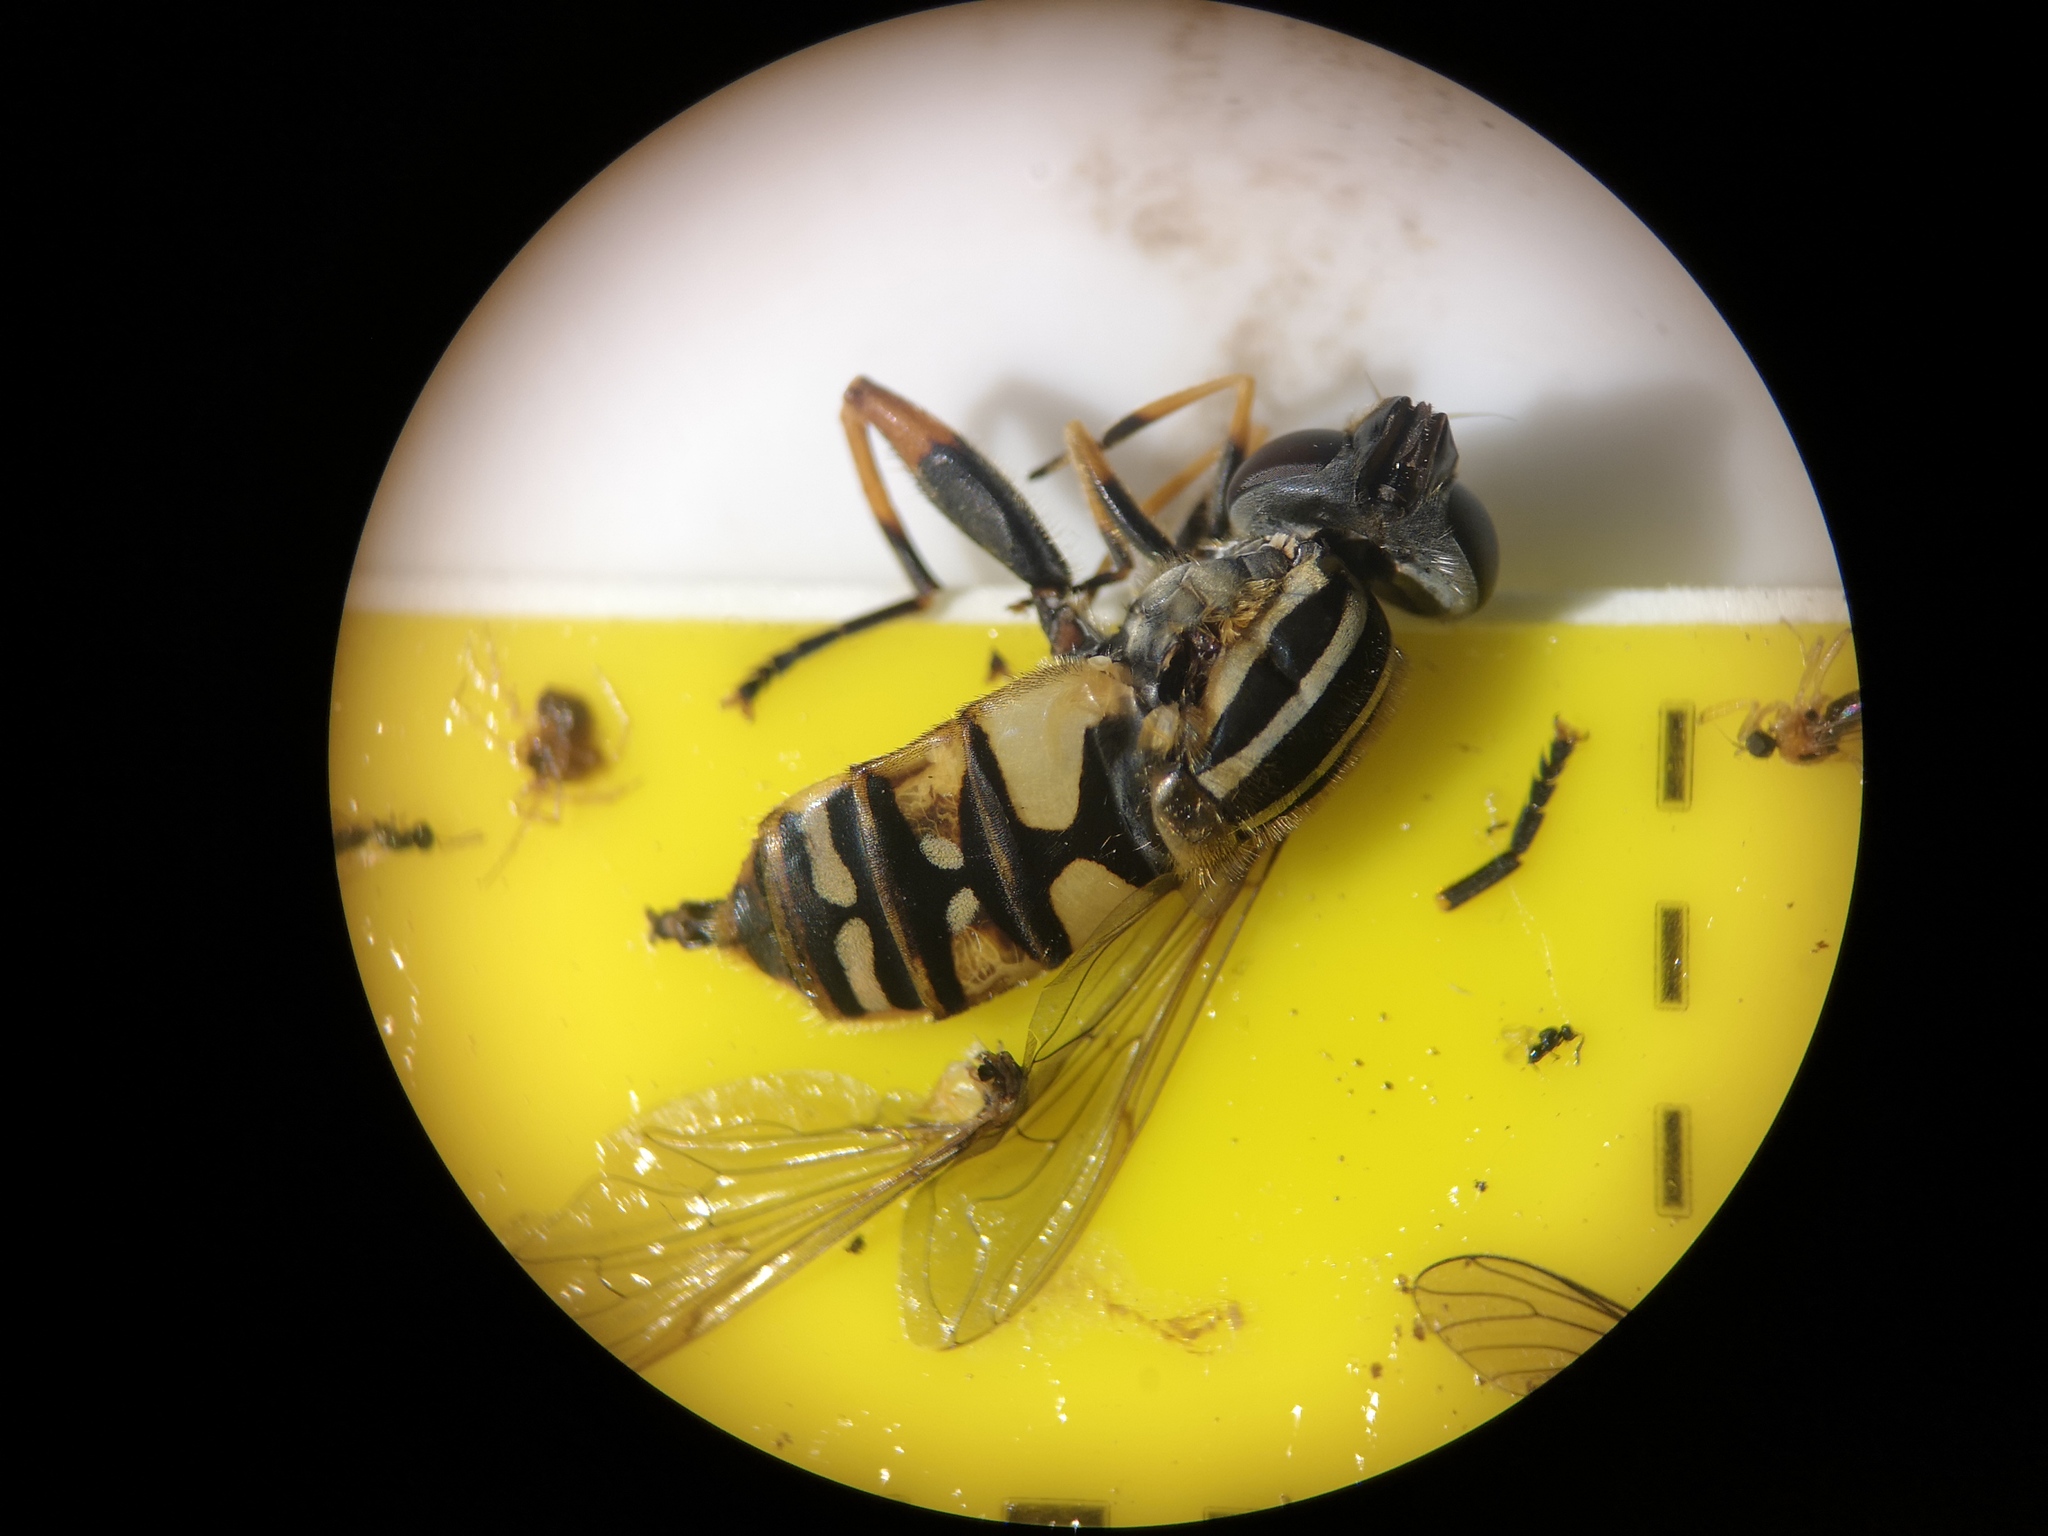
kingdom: Animalia
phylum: Arthropoda
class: Insecta
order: Diptera
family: Syrphidae
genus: Helophilus
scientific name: Helophilus pendulus
